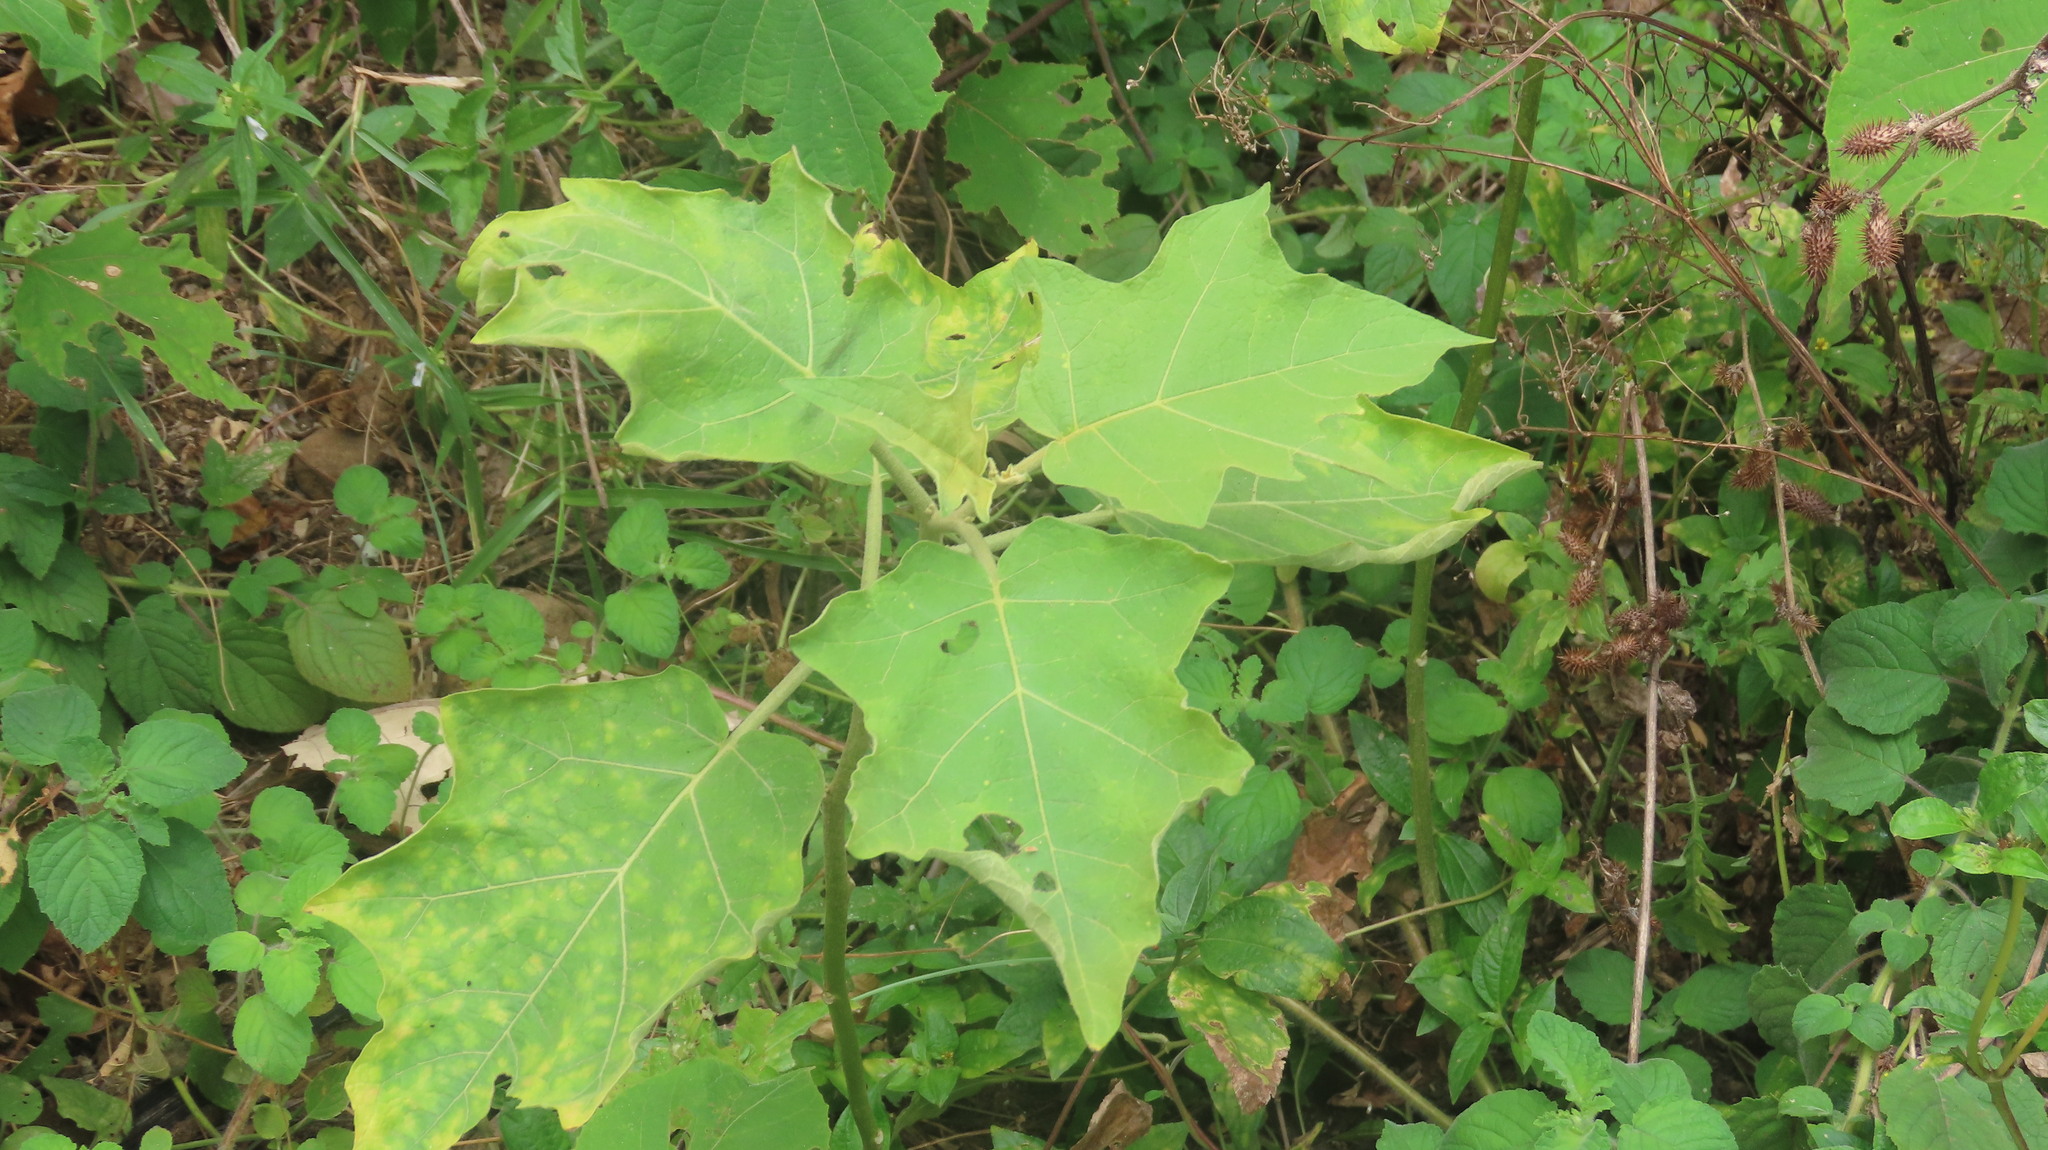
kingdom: Plantae
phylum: Tracheophyta
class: Magnoliopsida
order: Solanales
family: Solanaceae
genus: Solanum
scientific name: Solanum torvum
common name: Turkey berry
